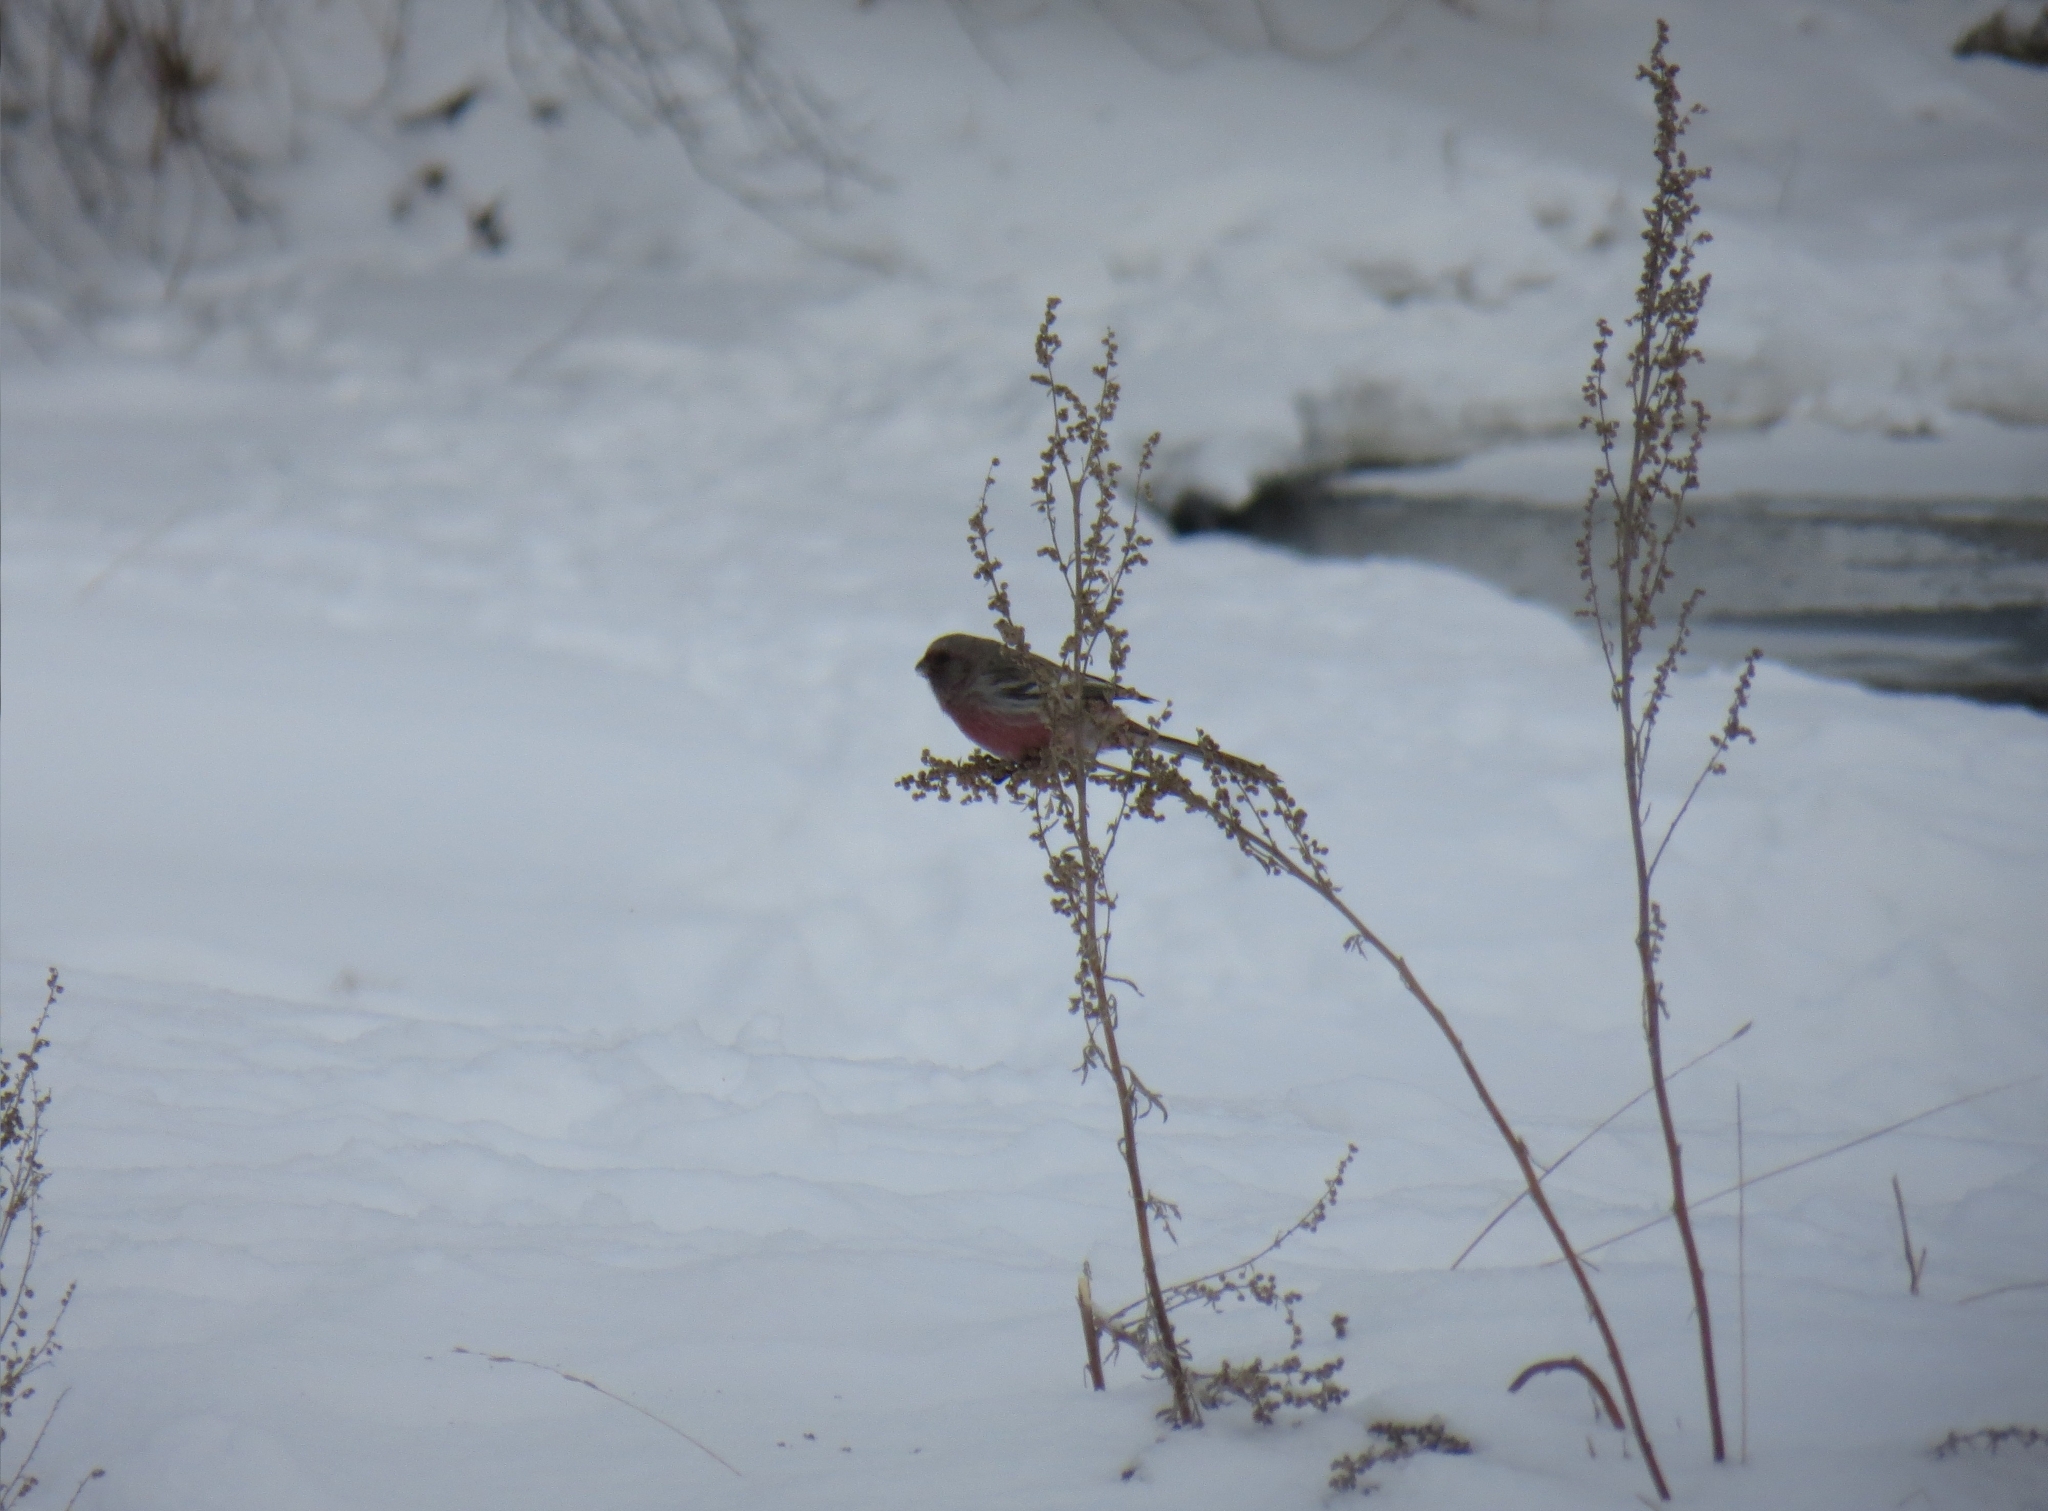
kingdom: Animalia
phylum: Chordata
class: Aves
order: Passeriformes
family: Fringillidae
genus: Carpodacus
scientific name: Carpodacus sibiricus
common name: Long-tailed rosefinch
